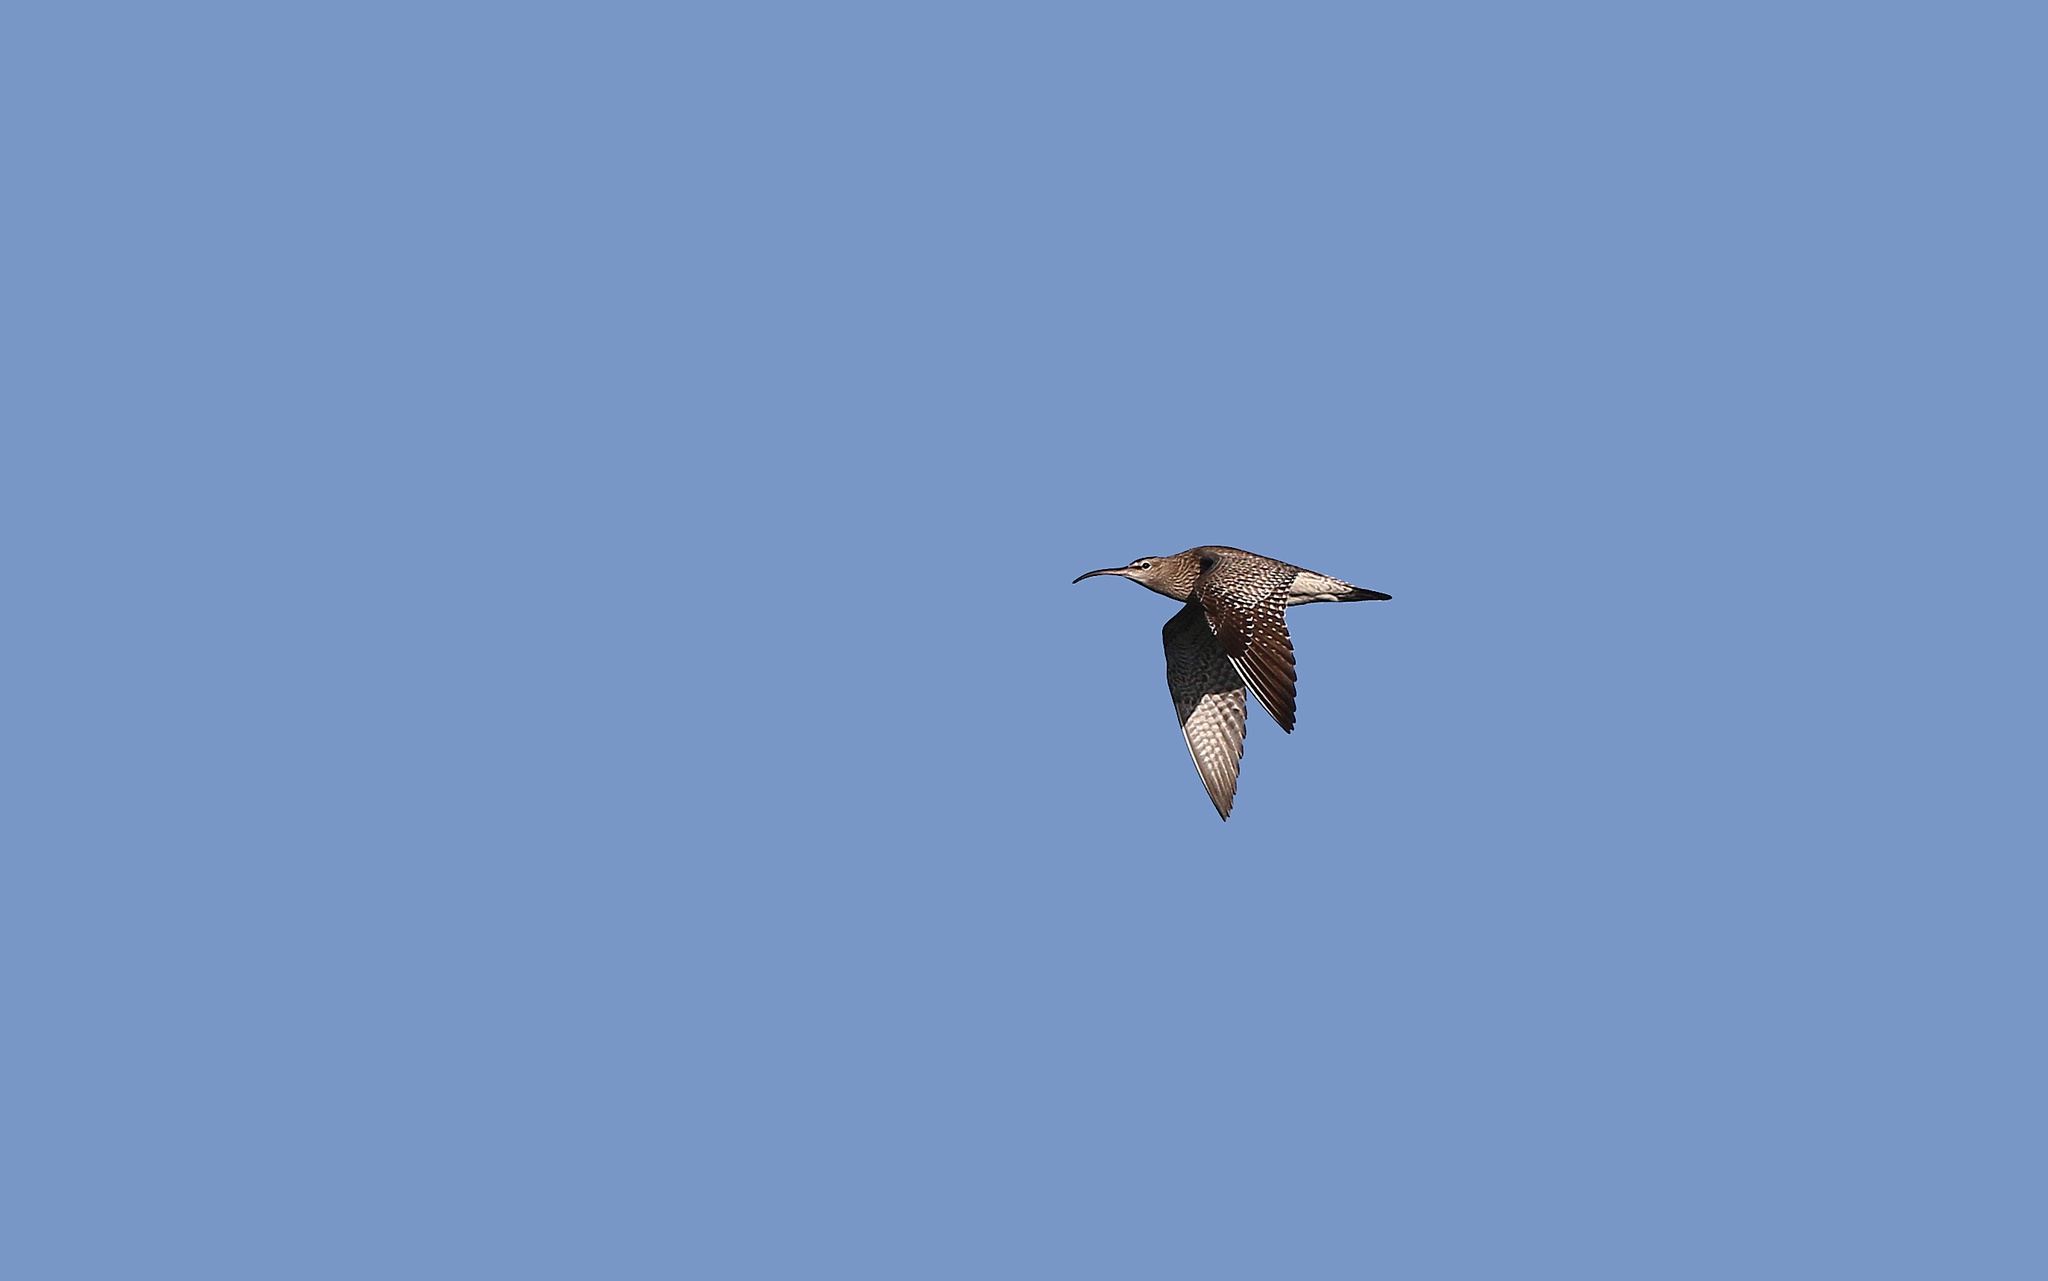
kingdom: Animalia
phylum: Chordata
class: Aves
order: Charadriiformes
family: Scolopacidae
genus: Numenius
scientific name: Numenius phaeopus
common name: Whimbrel
